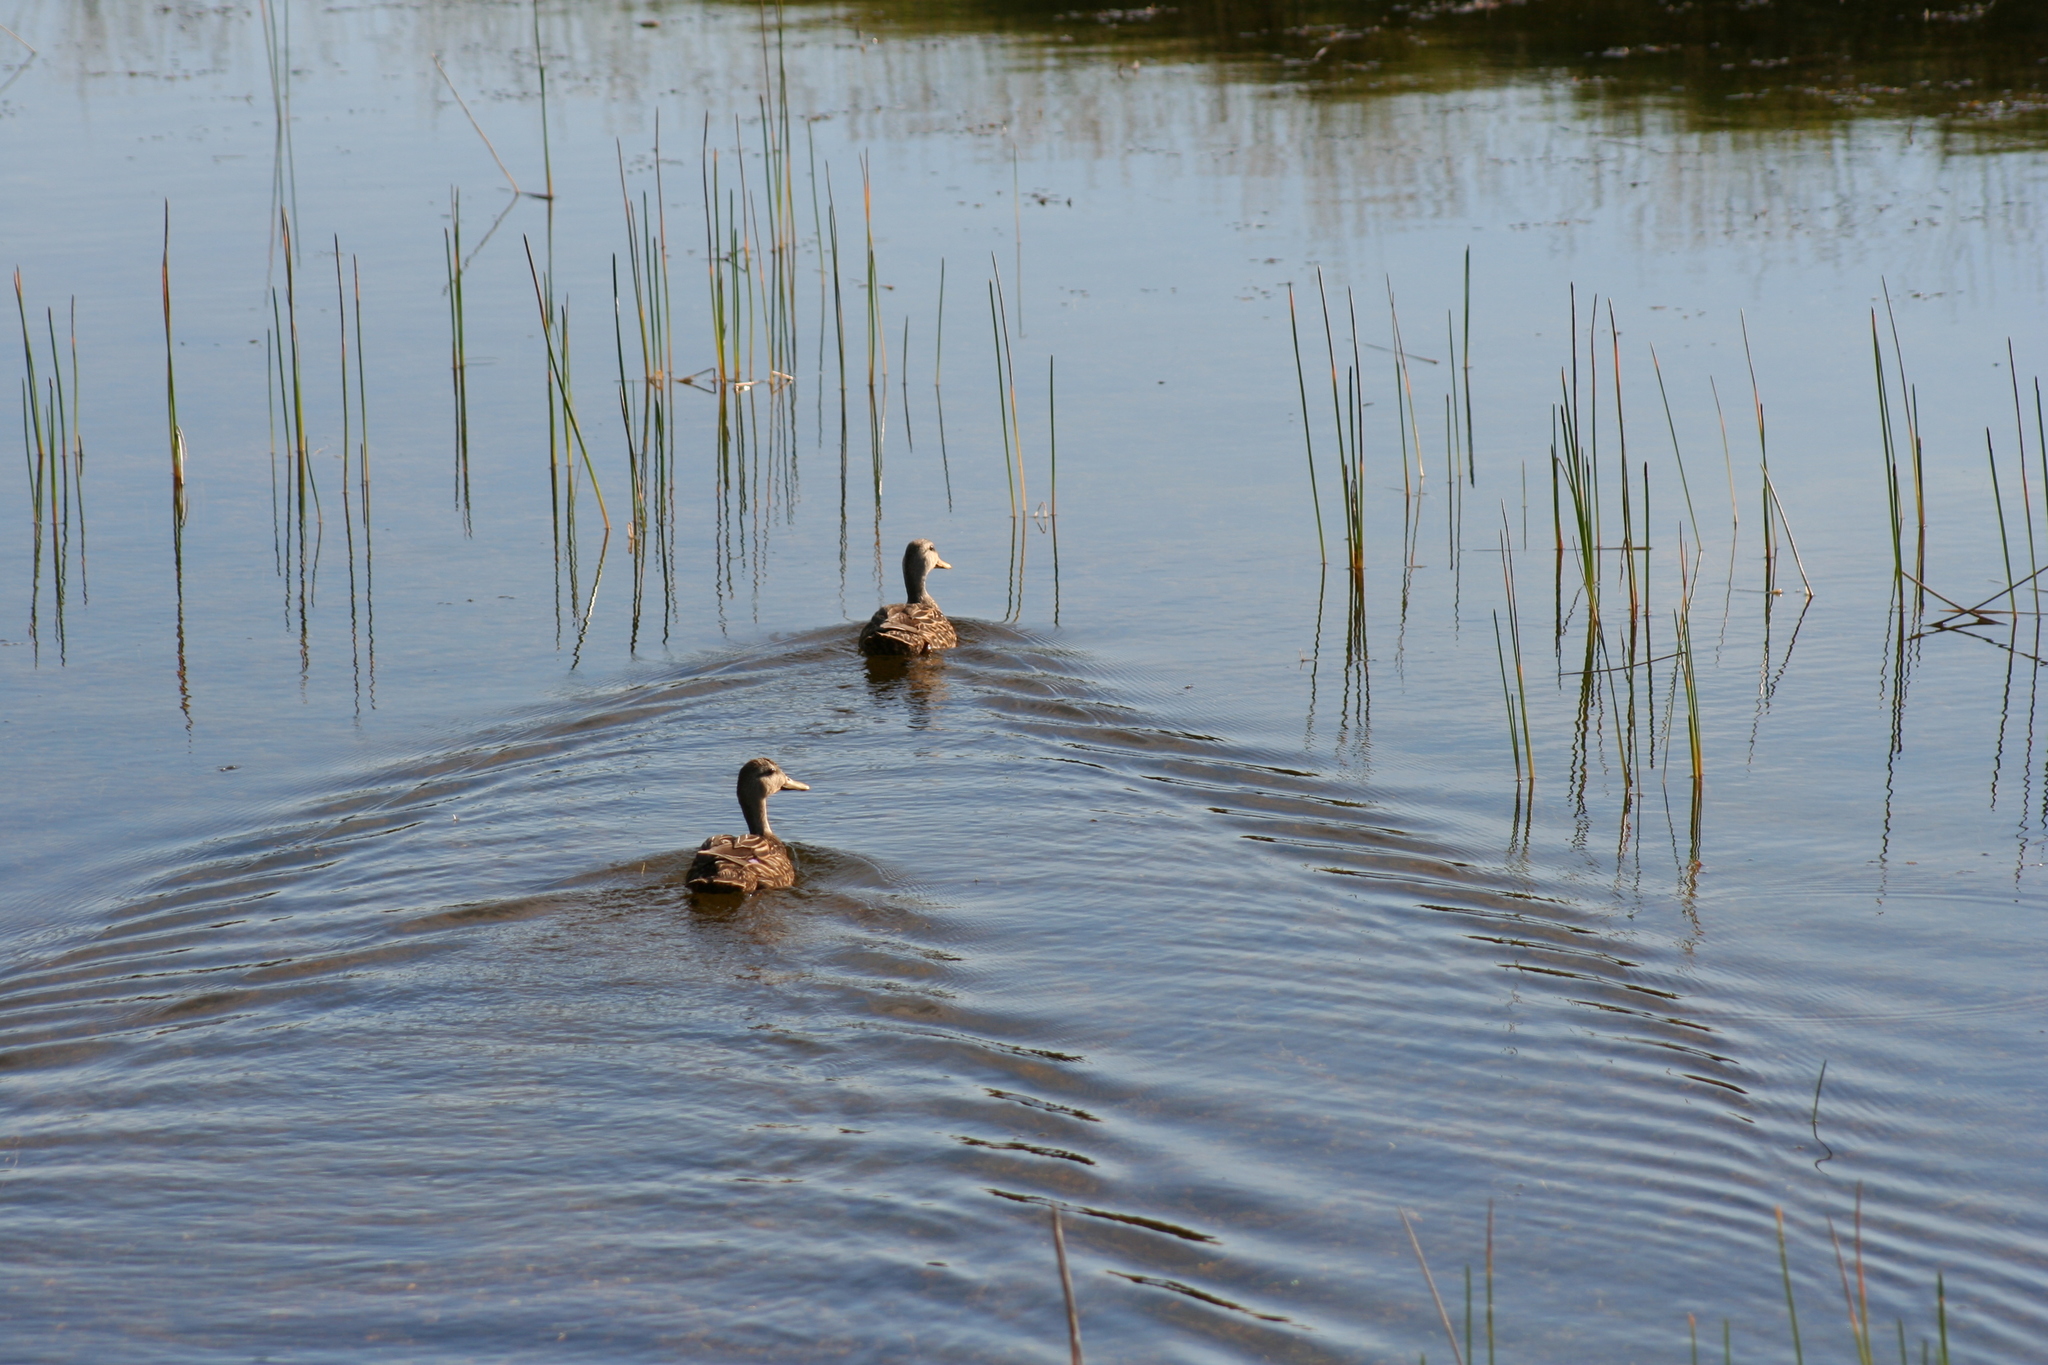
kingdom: Animalia
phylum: Chordata
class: Aves
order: Anseriformes
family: Anatidae
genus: Anas
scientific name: Anas fulvigula
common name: Mottled duck
